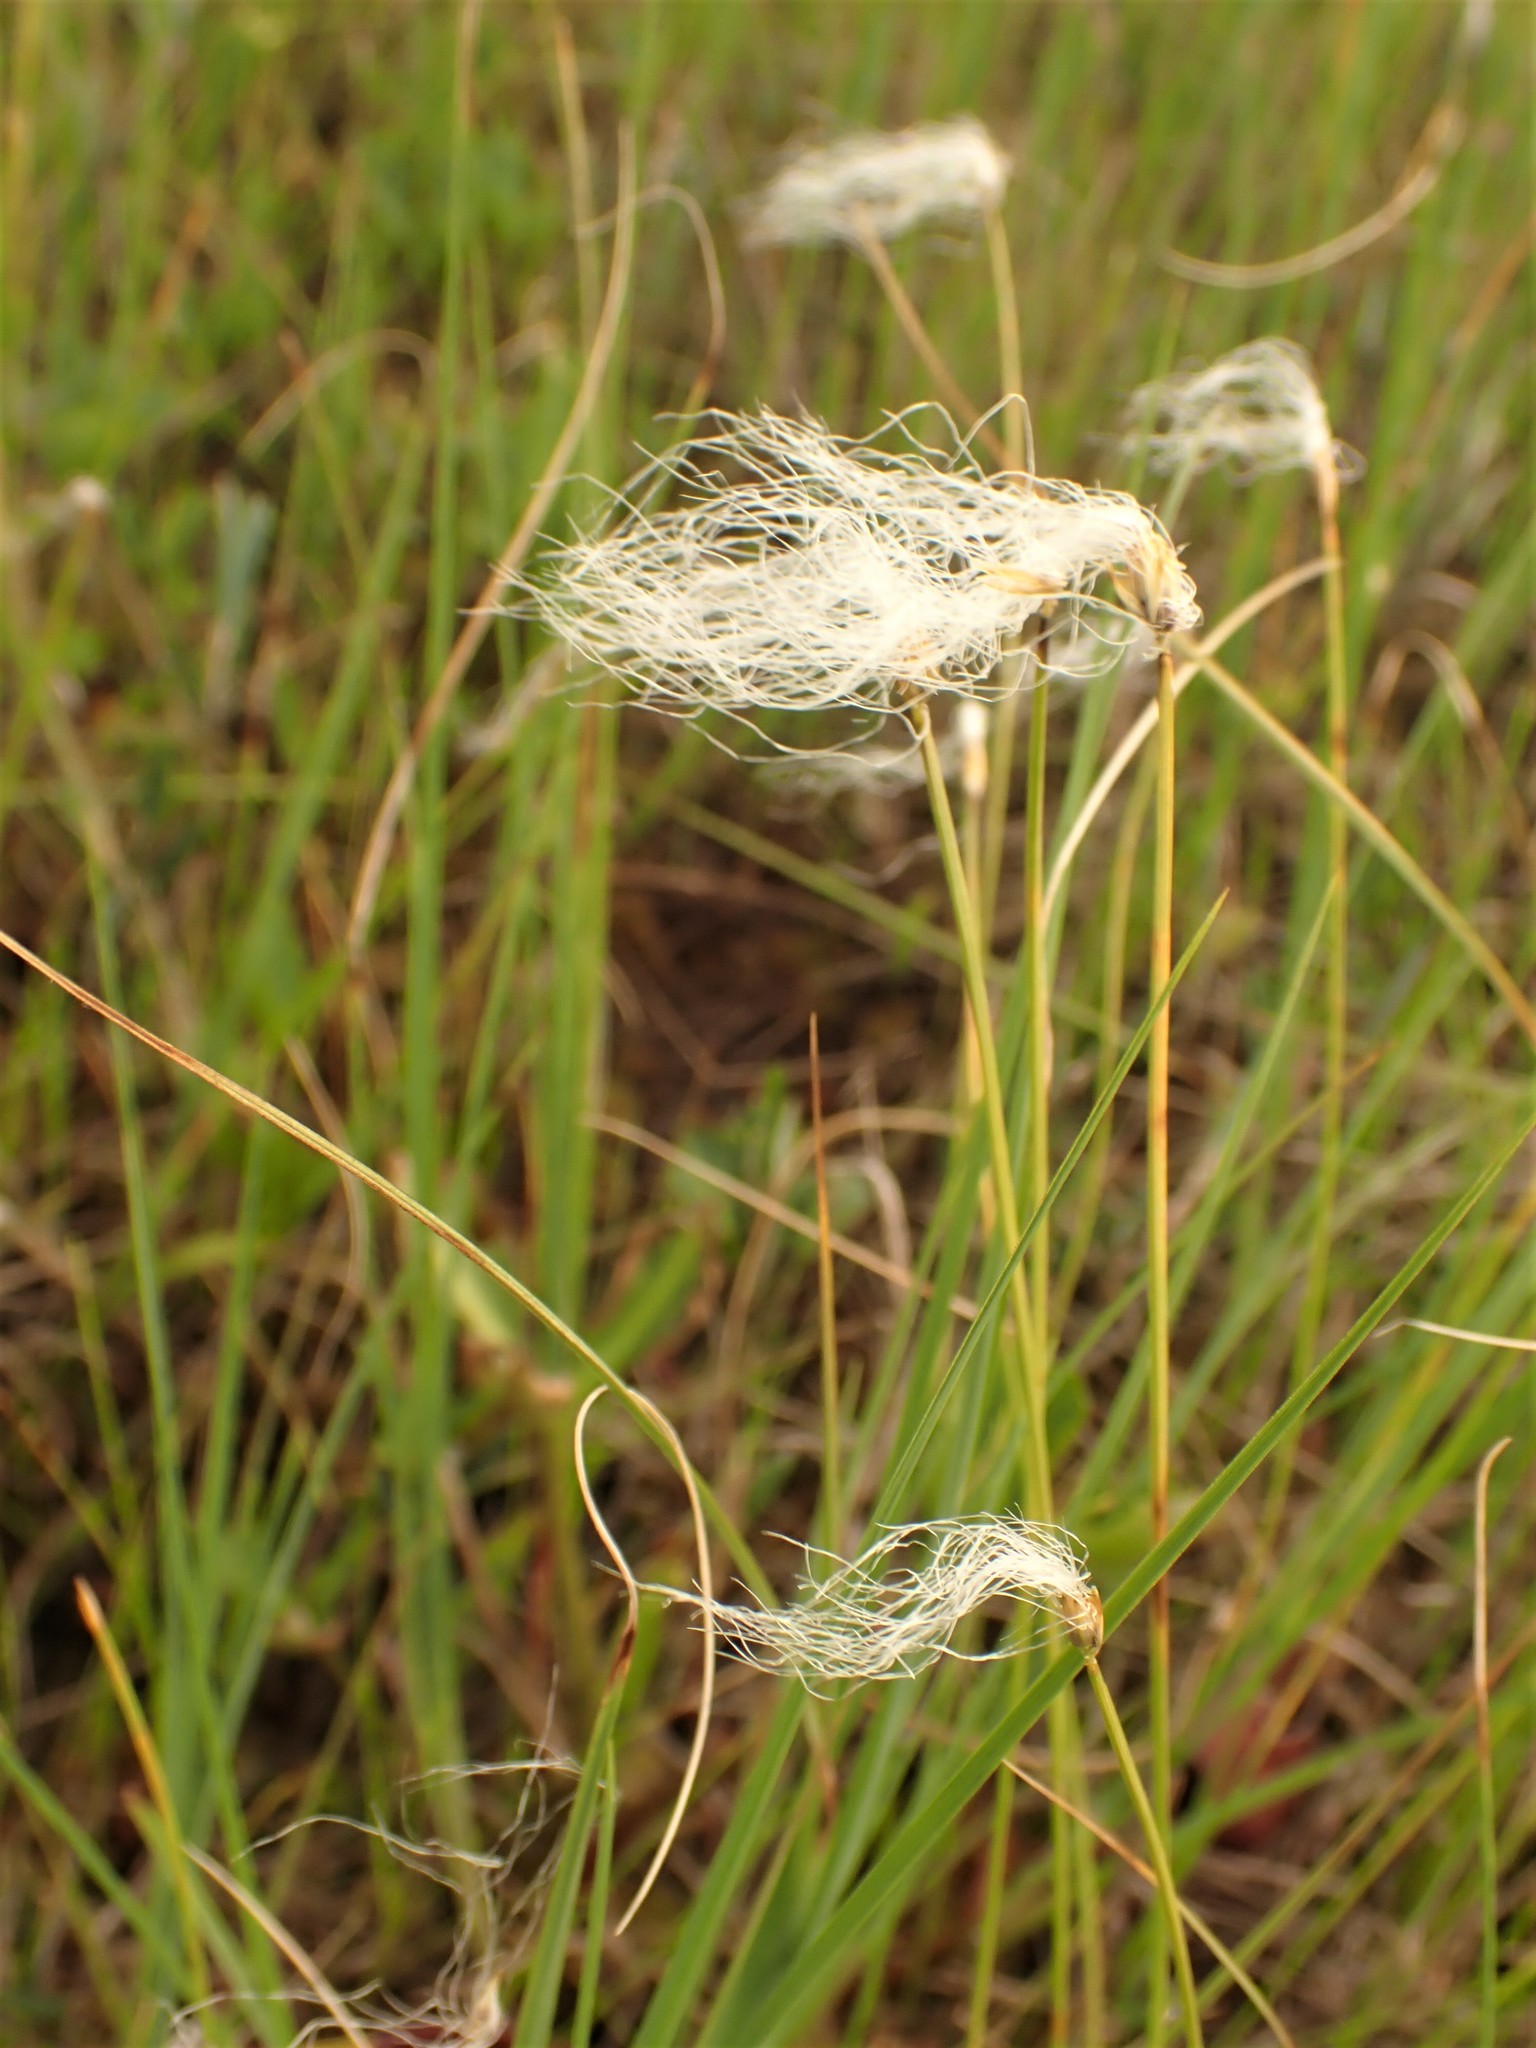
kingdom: Plantae
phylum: Tracheophyta
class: Liliopsida
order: Poales
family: Cyperaceae
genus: Trichophorum
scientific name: Trichophorum alpinum
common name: Alpine bulrush
